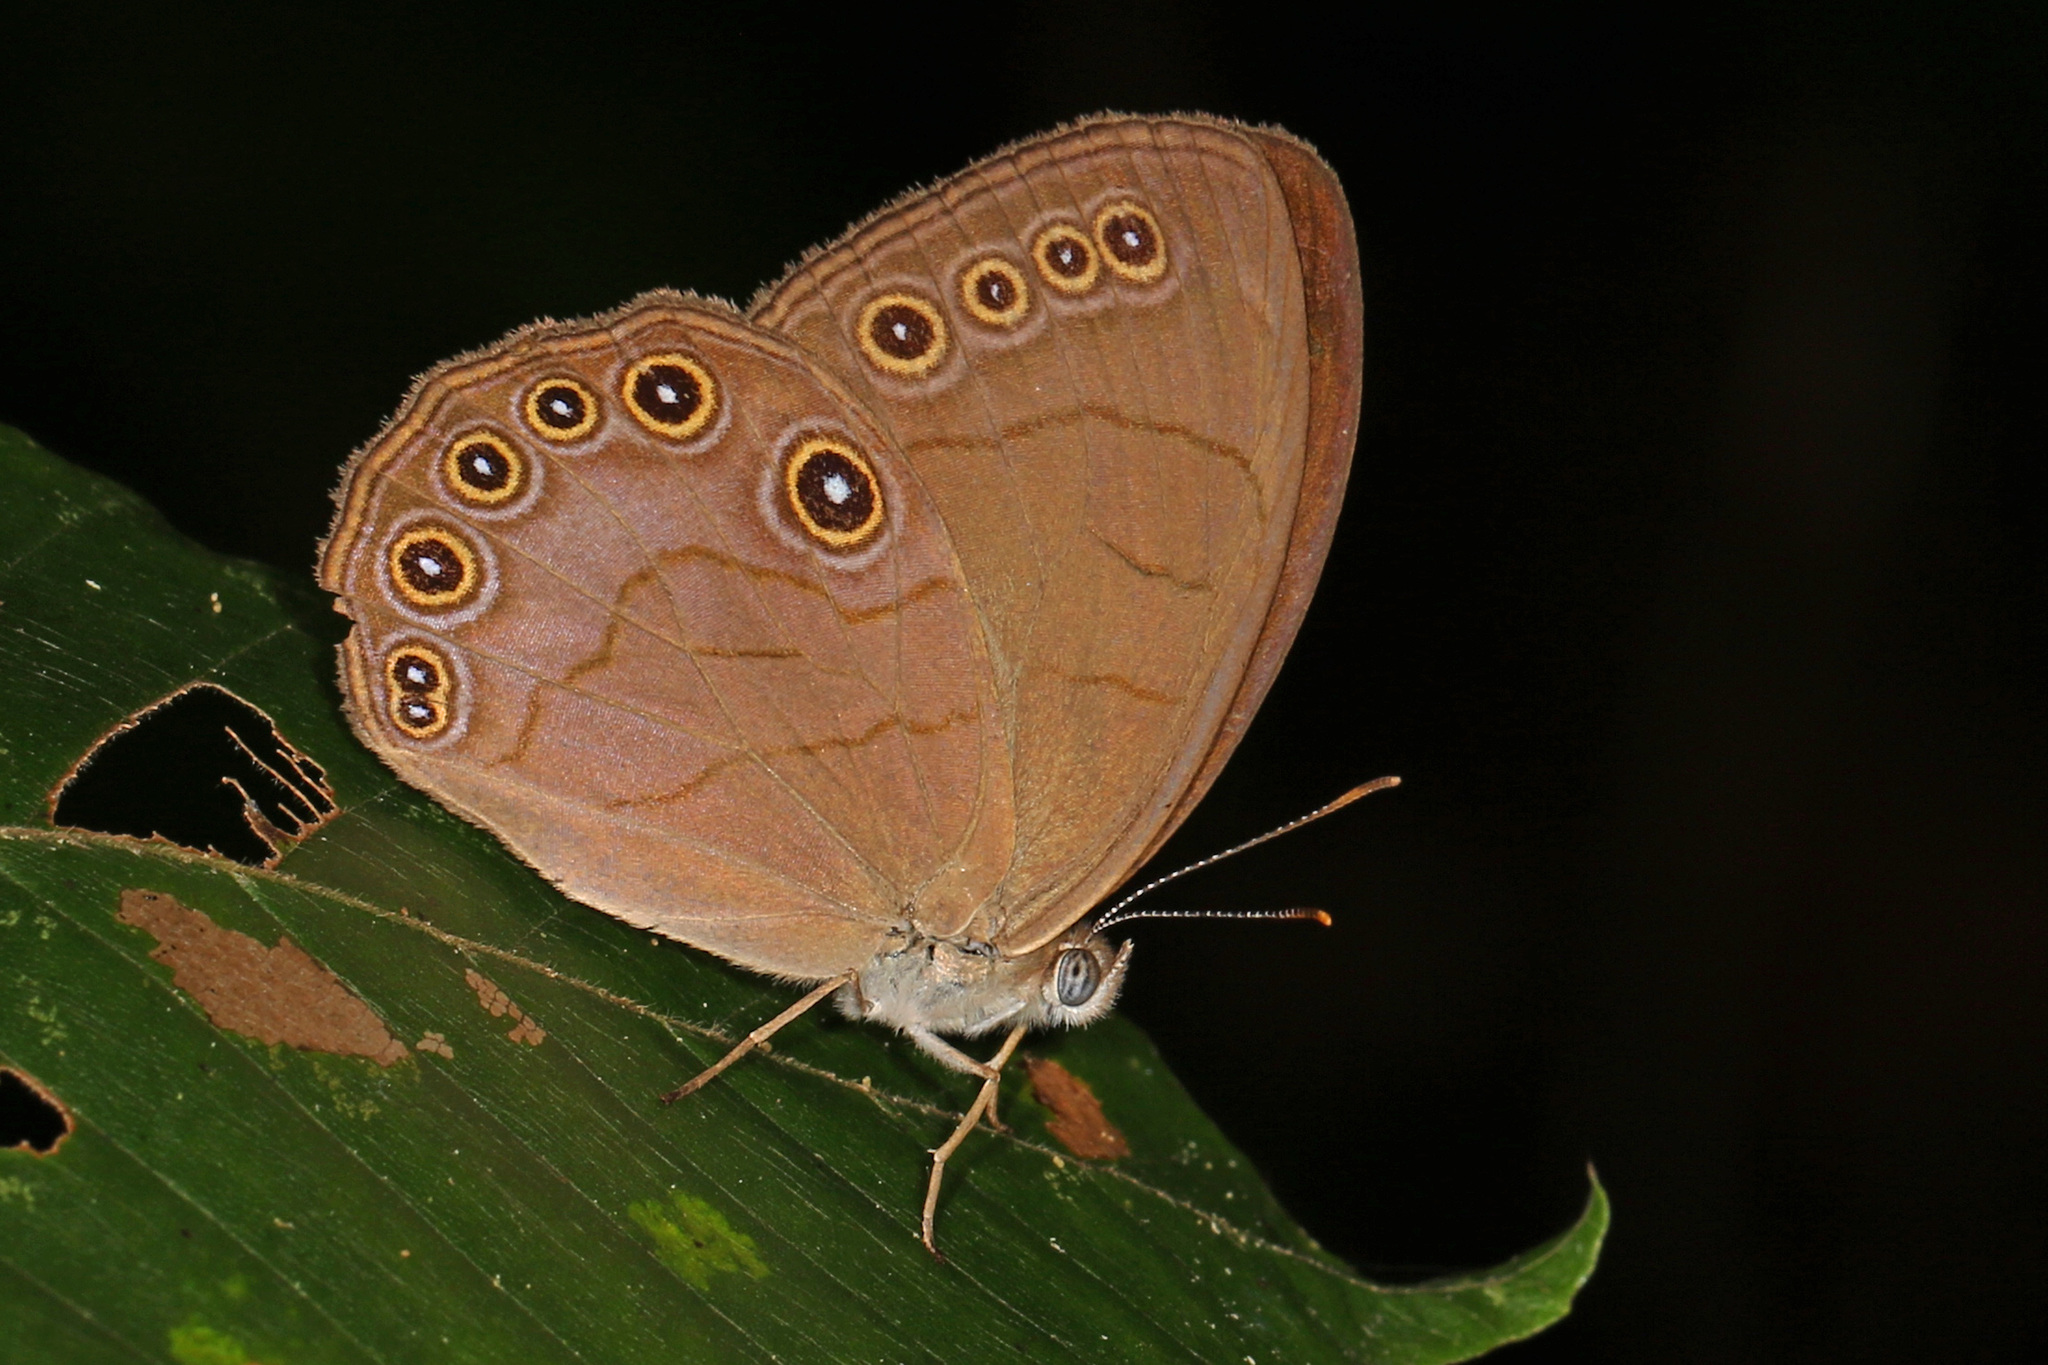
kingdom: Animalia
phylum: Arthropoda
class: Insecta
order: Lepidoptera
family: Nymphalidae
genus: Lethe
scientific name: Lethe eurydice
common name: Eyed brown
